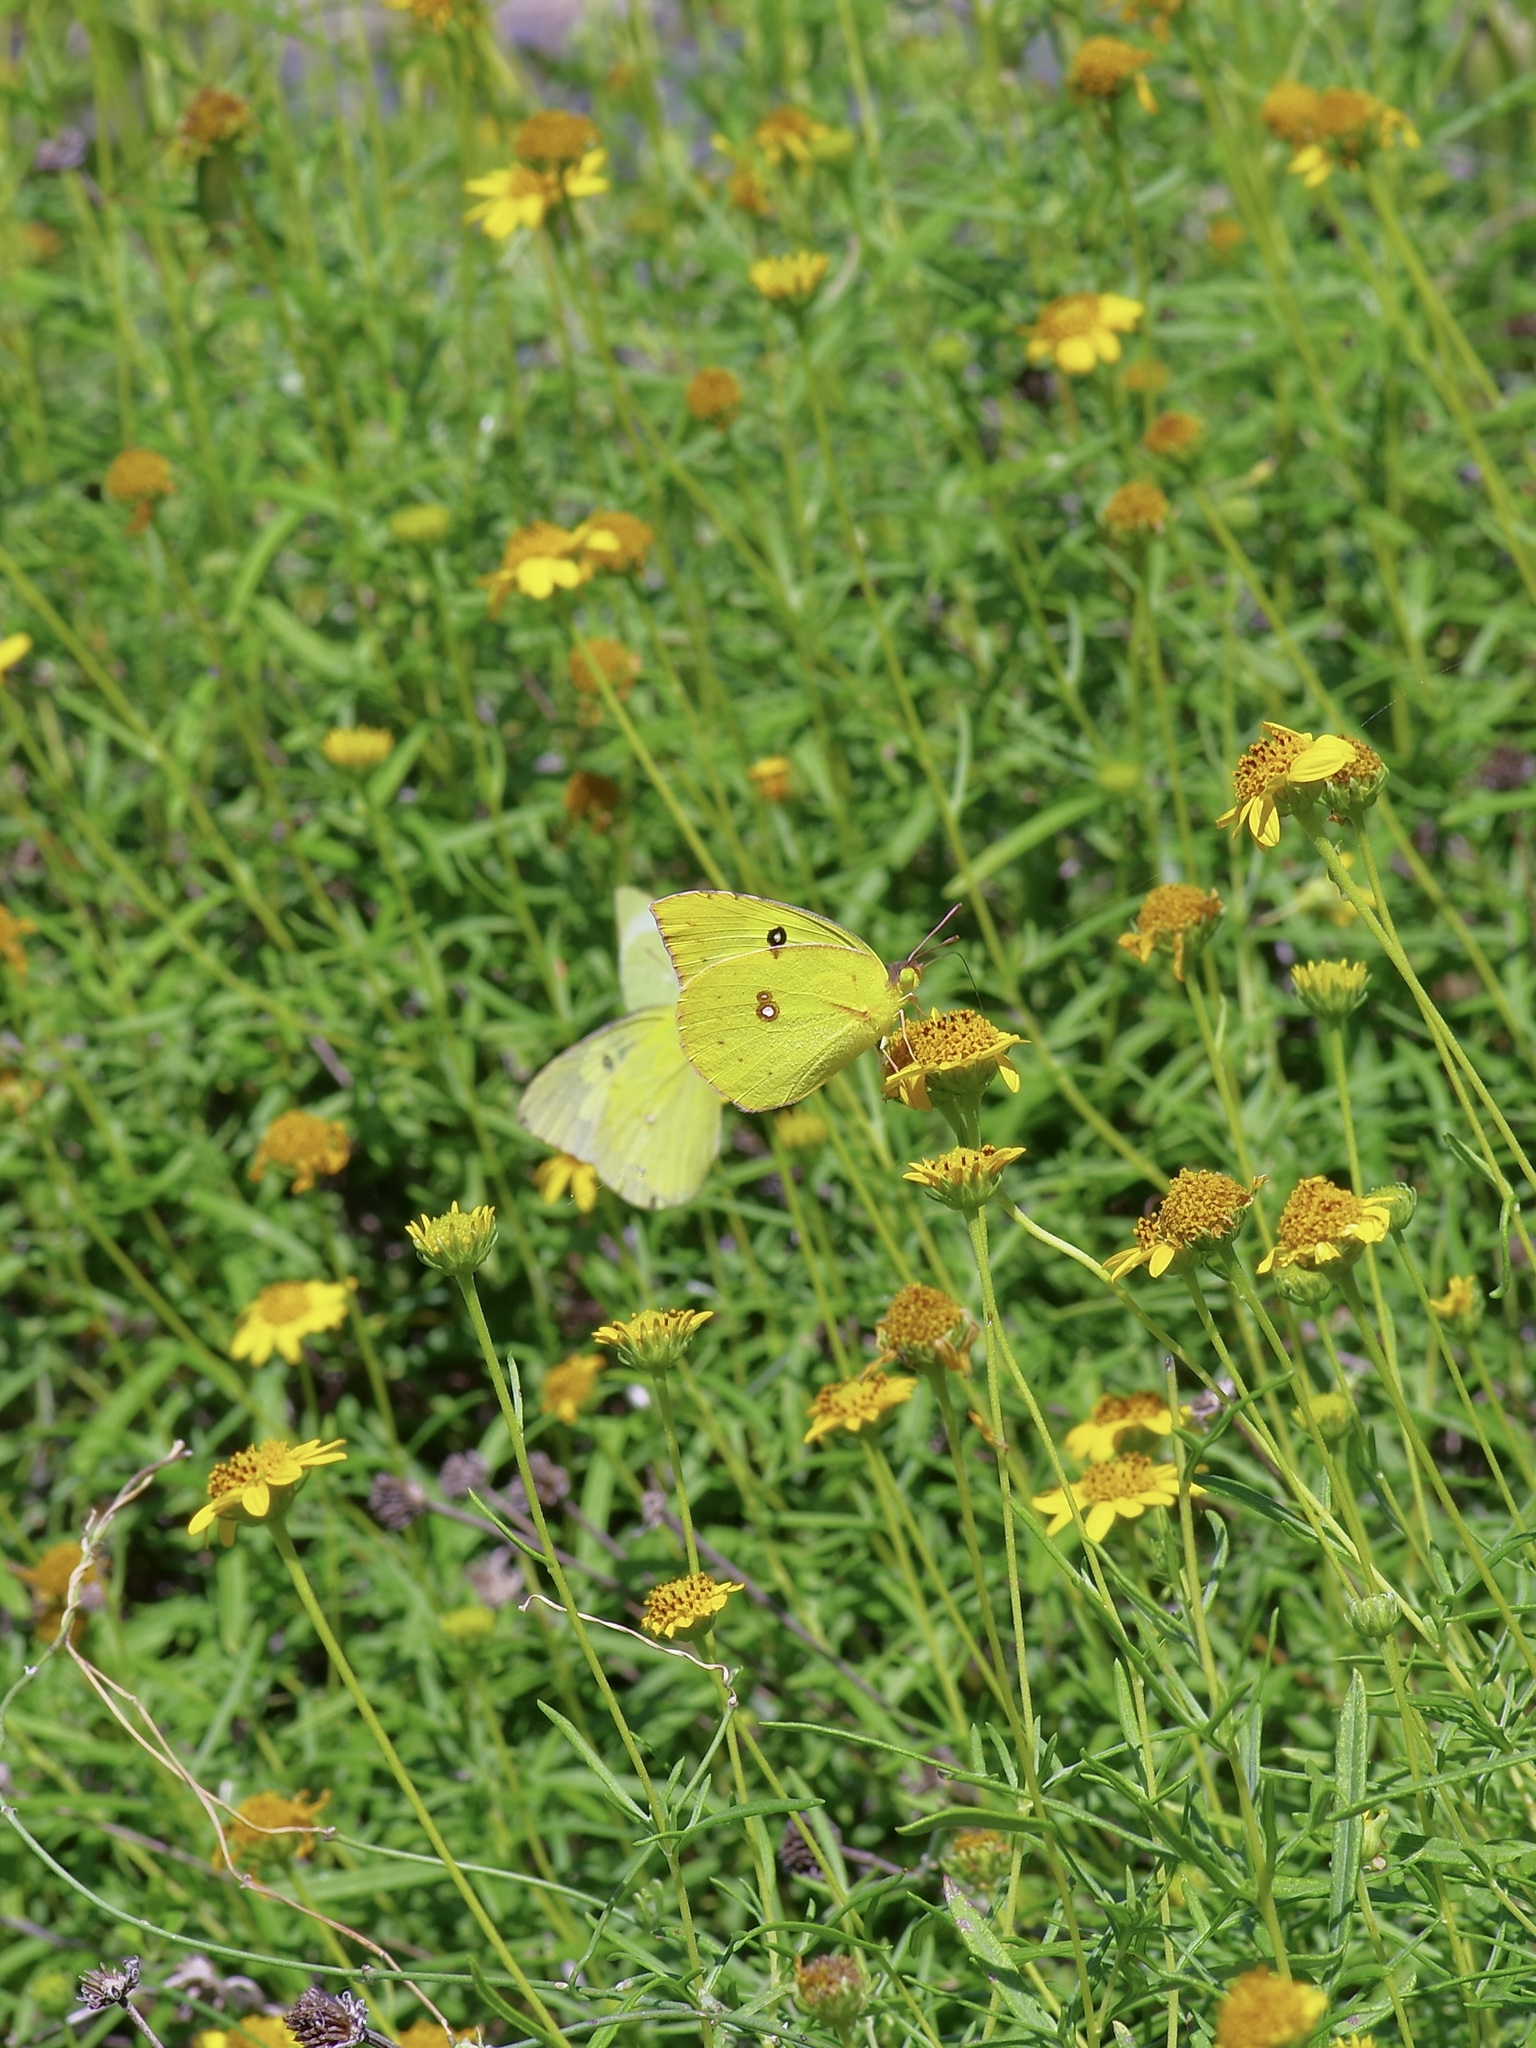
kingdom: Animalia
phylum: Arthropoda
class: Insecta
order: Lepidoptera
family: Pieridae
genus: Zerene
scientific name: Zerene cesonia
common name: Southern dogface
